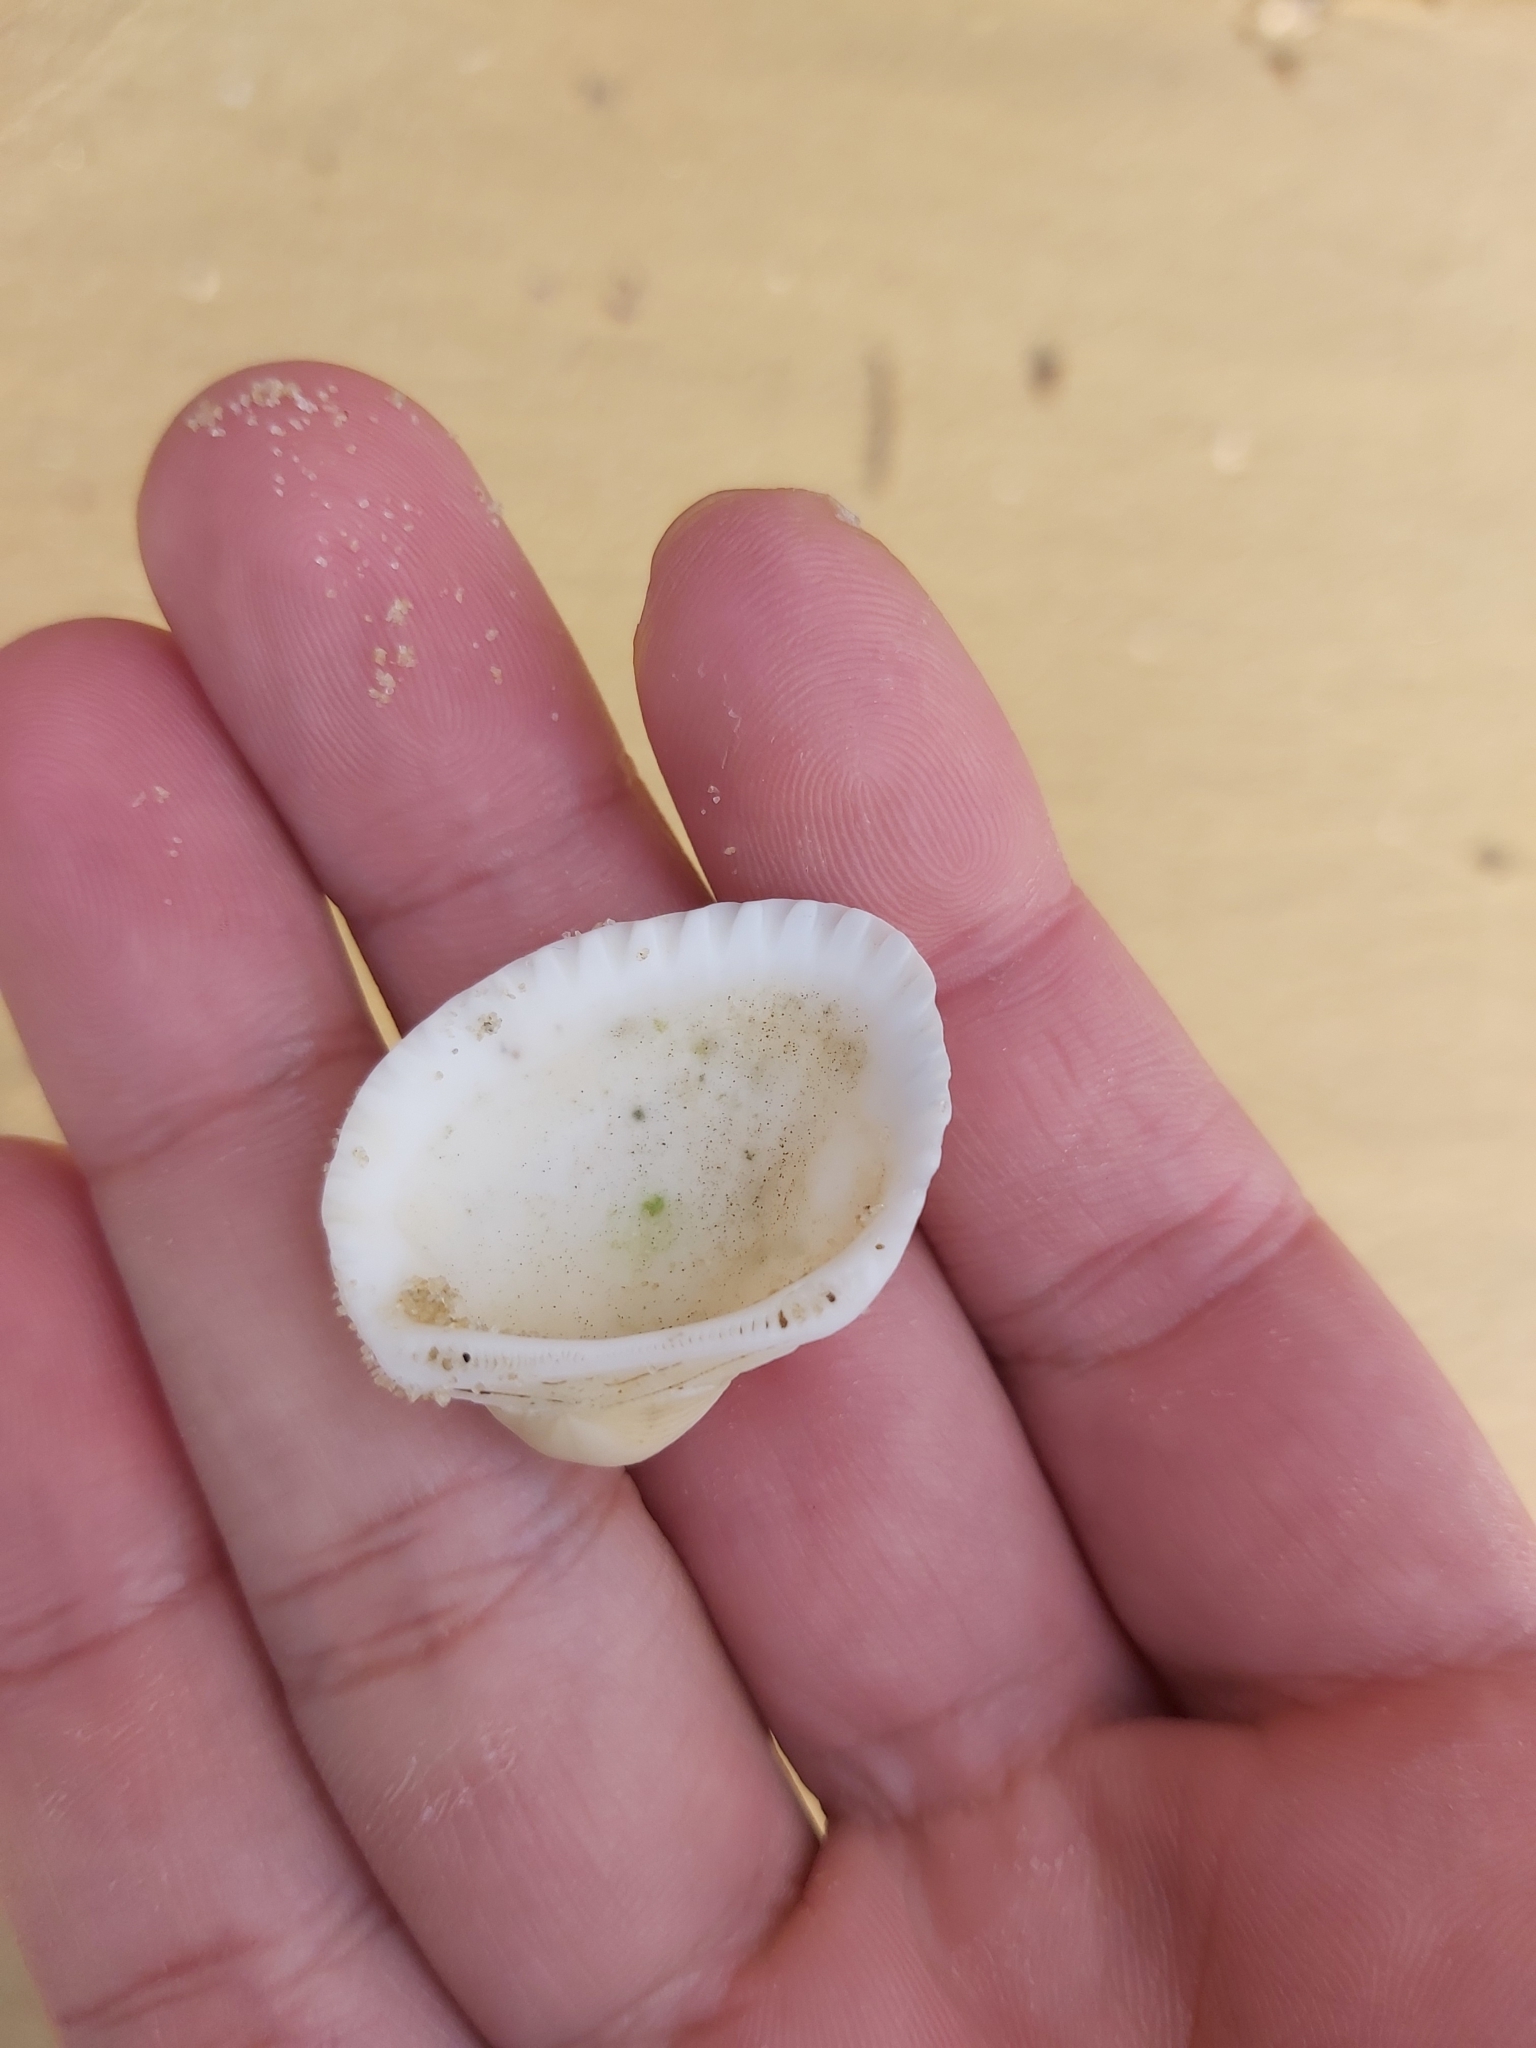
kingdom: Animalia
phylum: Mollusca
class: Bivalvia
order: Arcida
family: Arcidae
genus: Anadara
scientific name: Anadara trapezia
